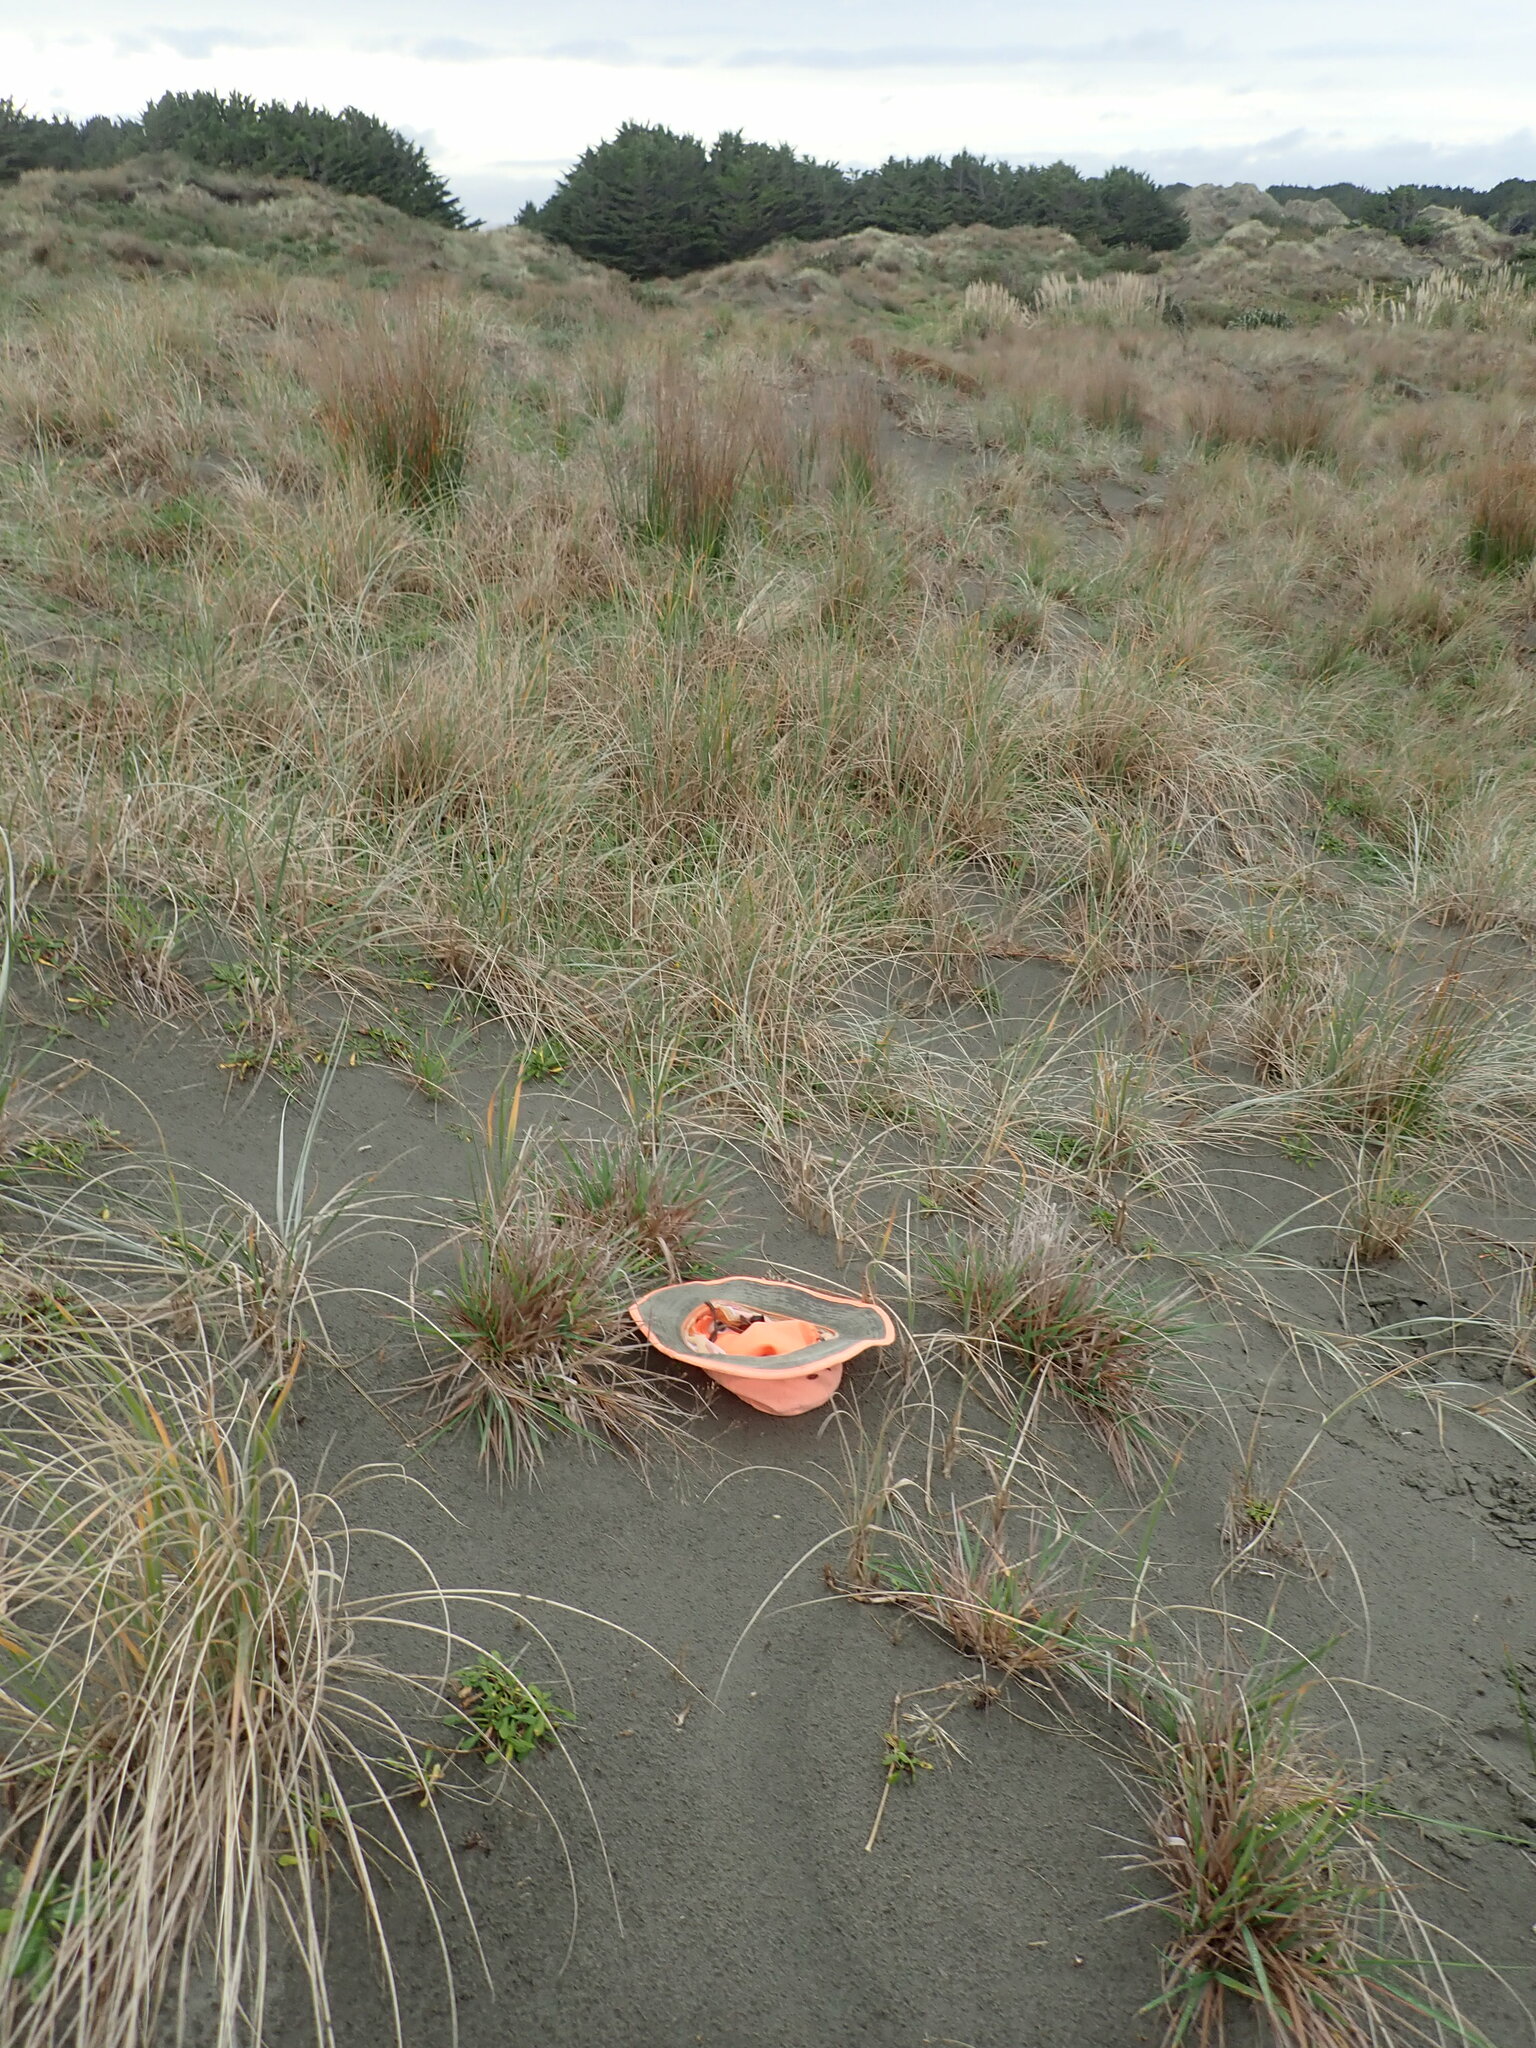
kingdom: Plantae
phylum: Tracheophyta
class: Liliopsida
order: Poales
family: Poaceae
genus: Lachnagrostis
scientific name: Lachnagrostis billardierei
